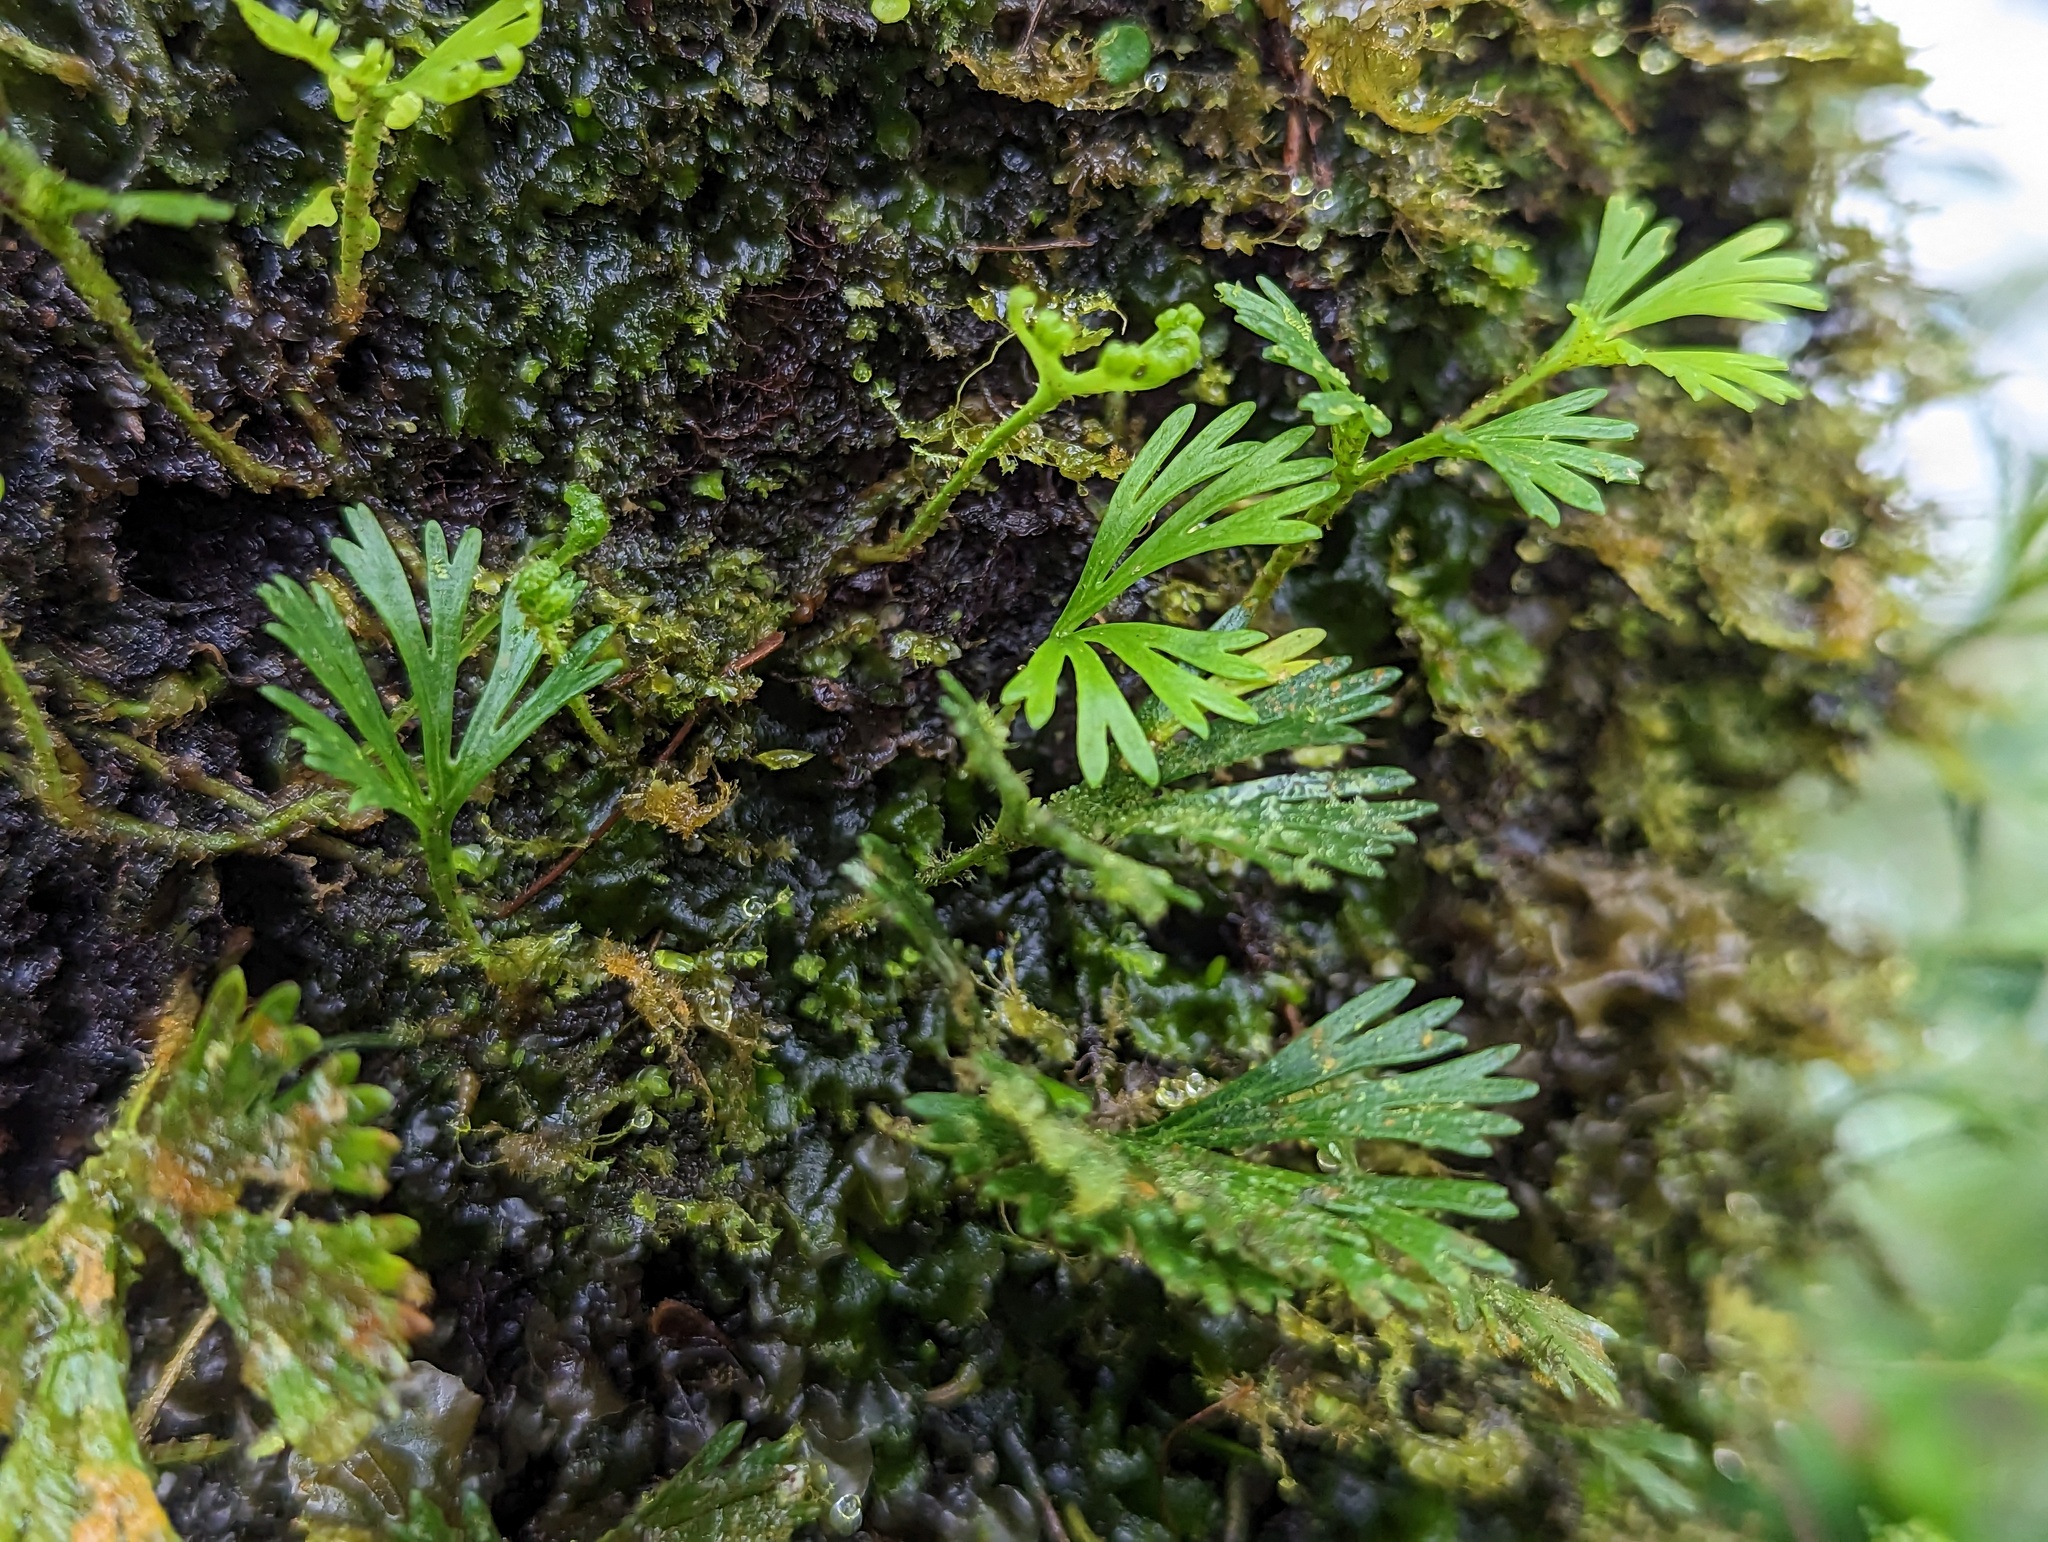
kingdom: Plantae
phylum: Tracheophyta
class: Polypodiopsida
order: Polypodiales
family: Dryopteridaceae
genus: Elaphoglossum
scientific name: Elaphoglossum peltatum
